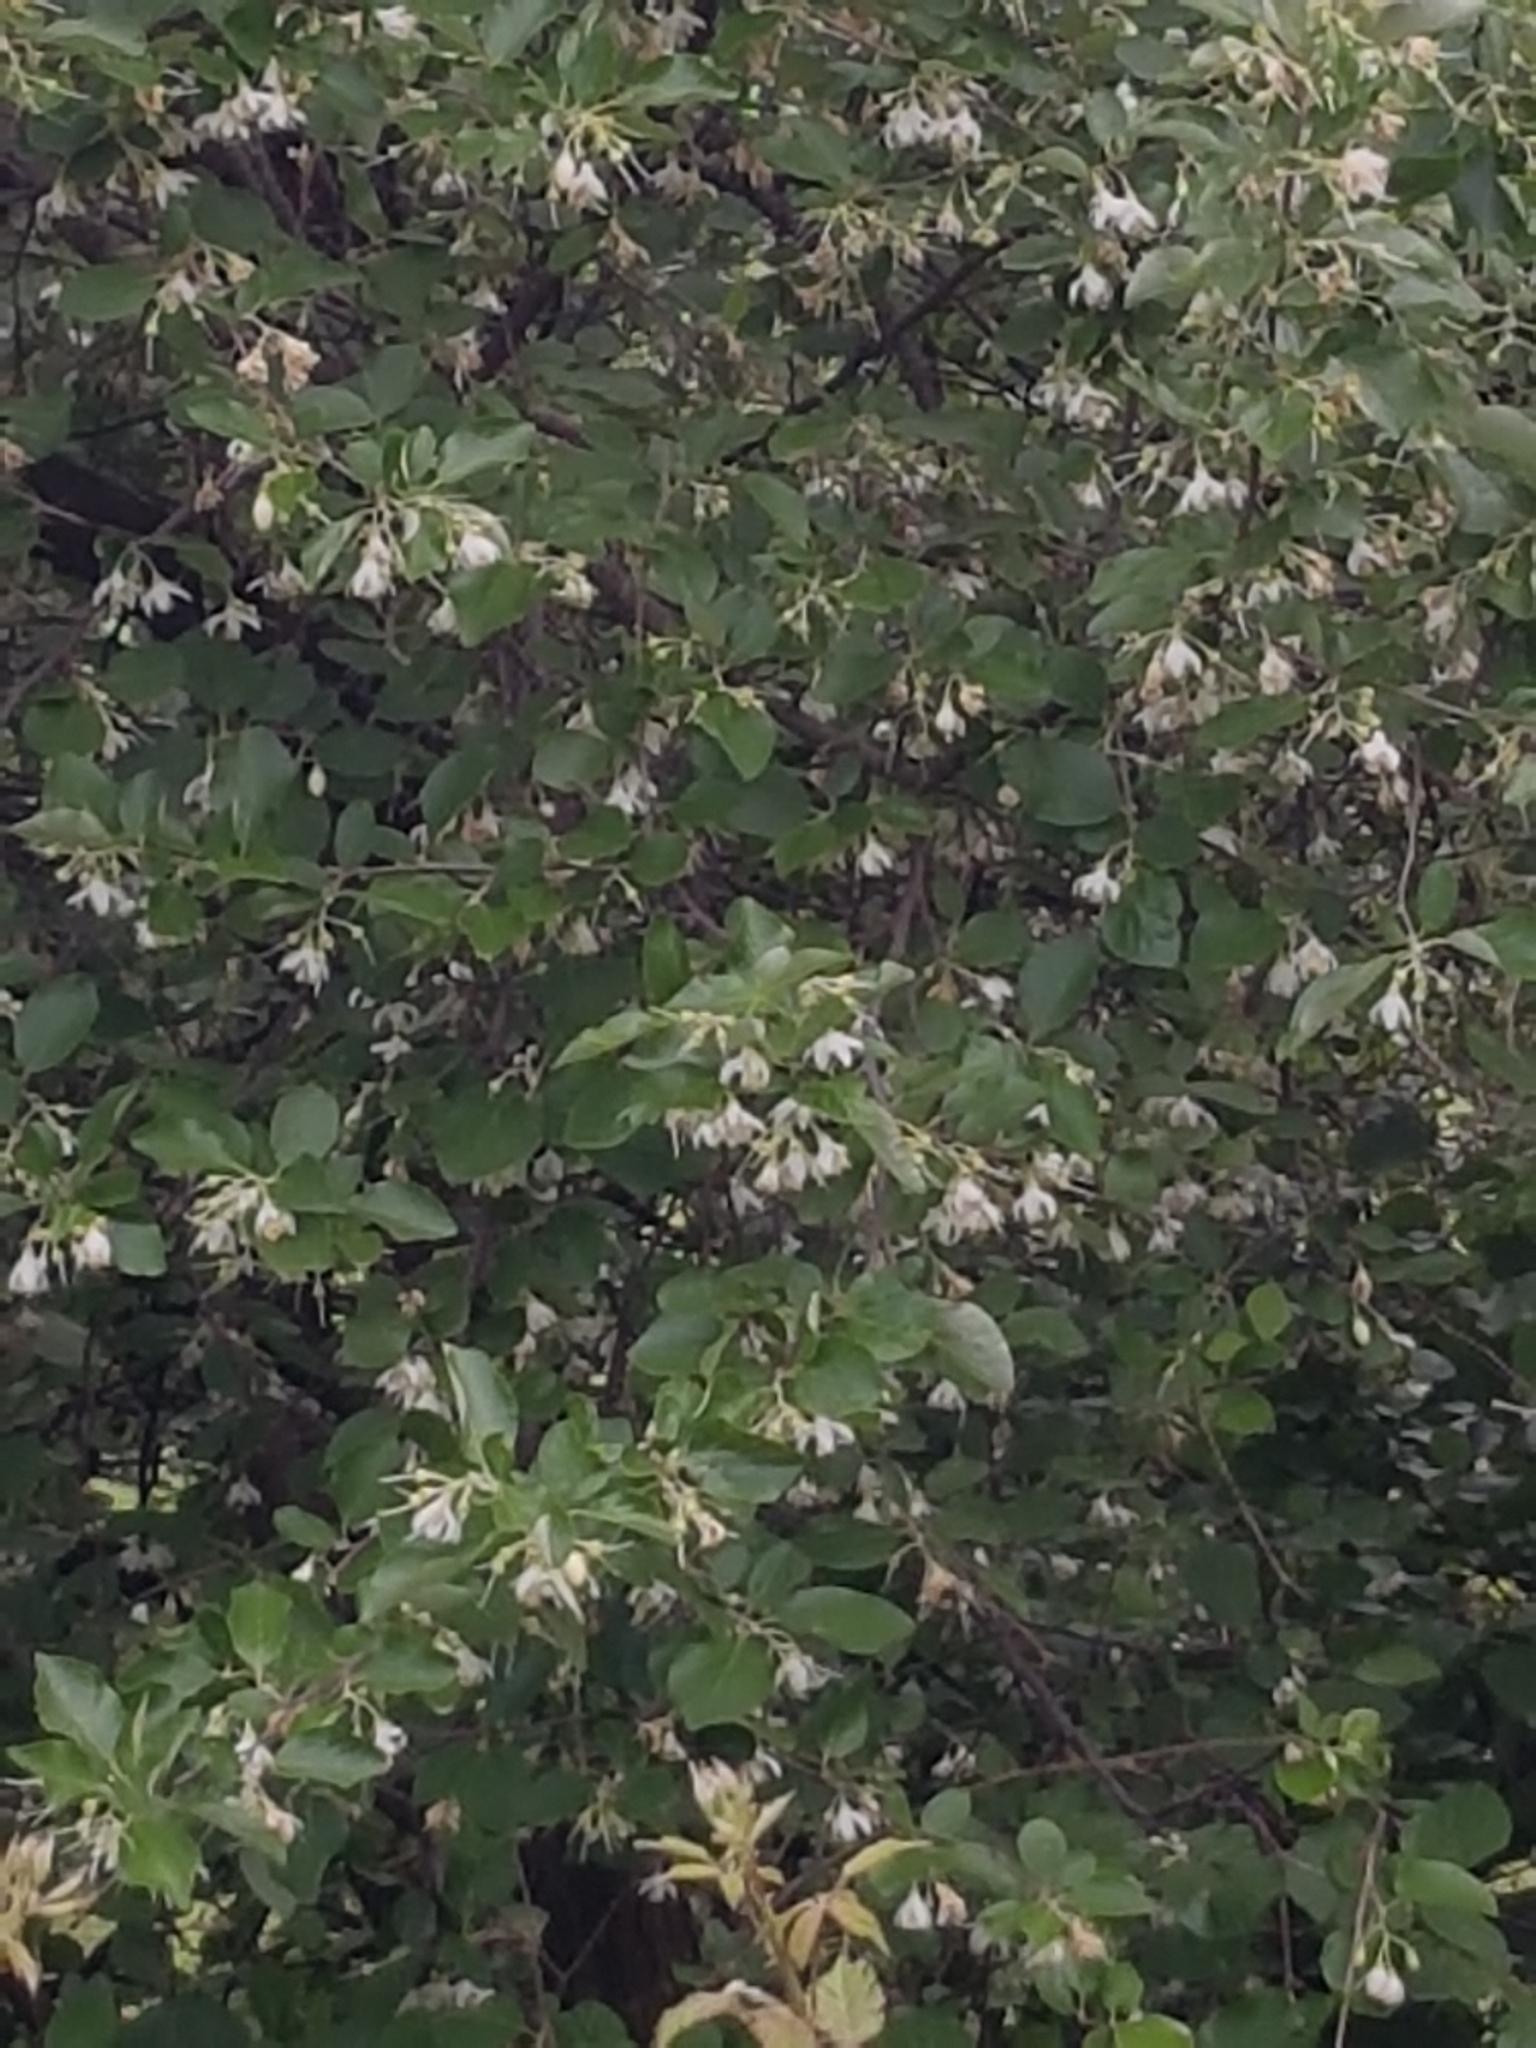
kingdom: Plantae
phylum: Tracheophyta
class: Magnoliopsida
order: Ericales
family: Styracaceae
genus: Styrax
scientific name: Styrax officinalis
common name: Storax
